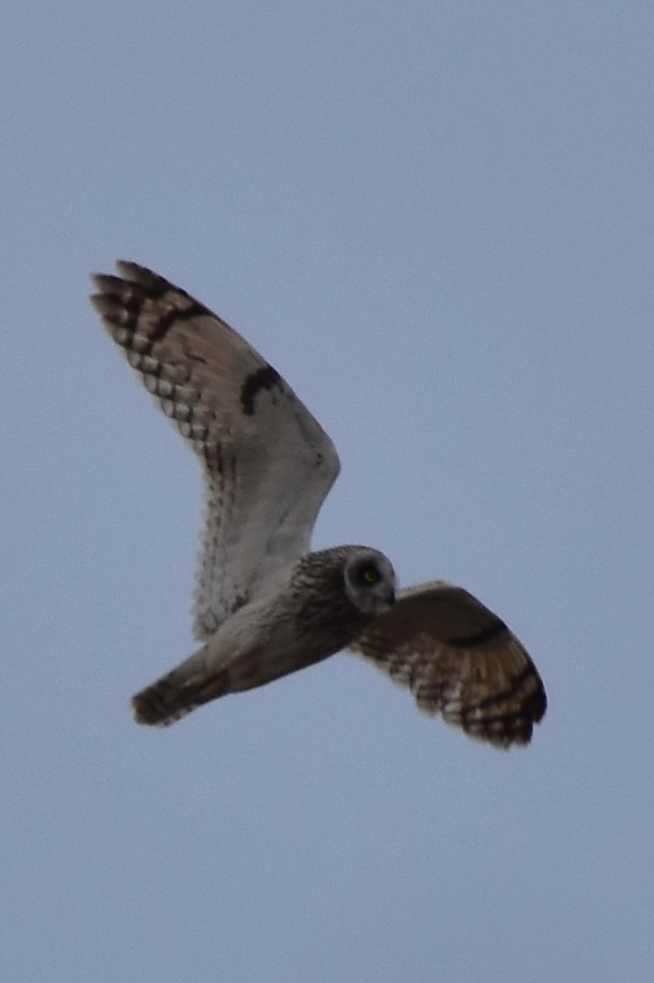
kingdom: Animalia
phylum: Chordata
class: Aves
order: Strigiformes
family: Strigidae
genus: Asio
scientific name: Asio flammeus
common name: Short-eared owl
